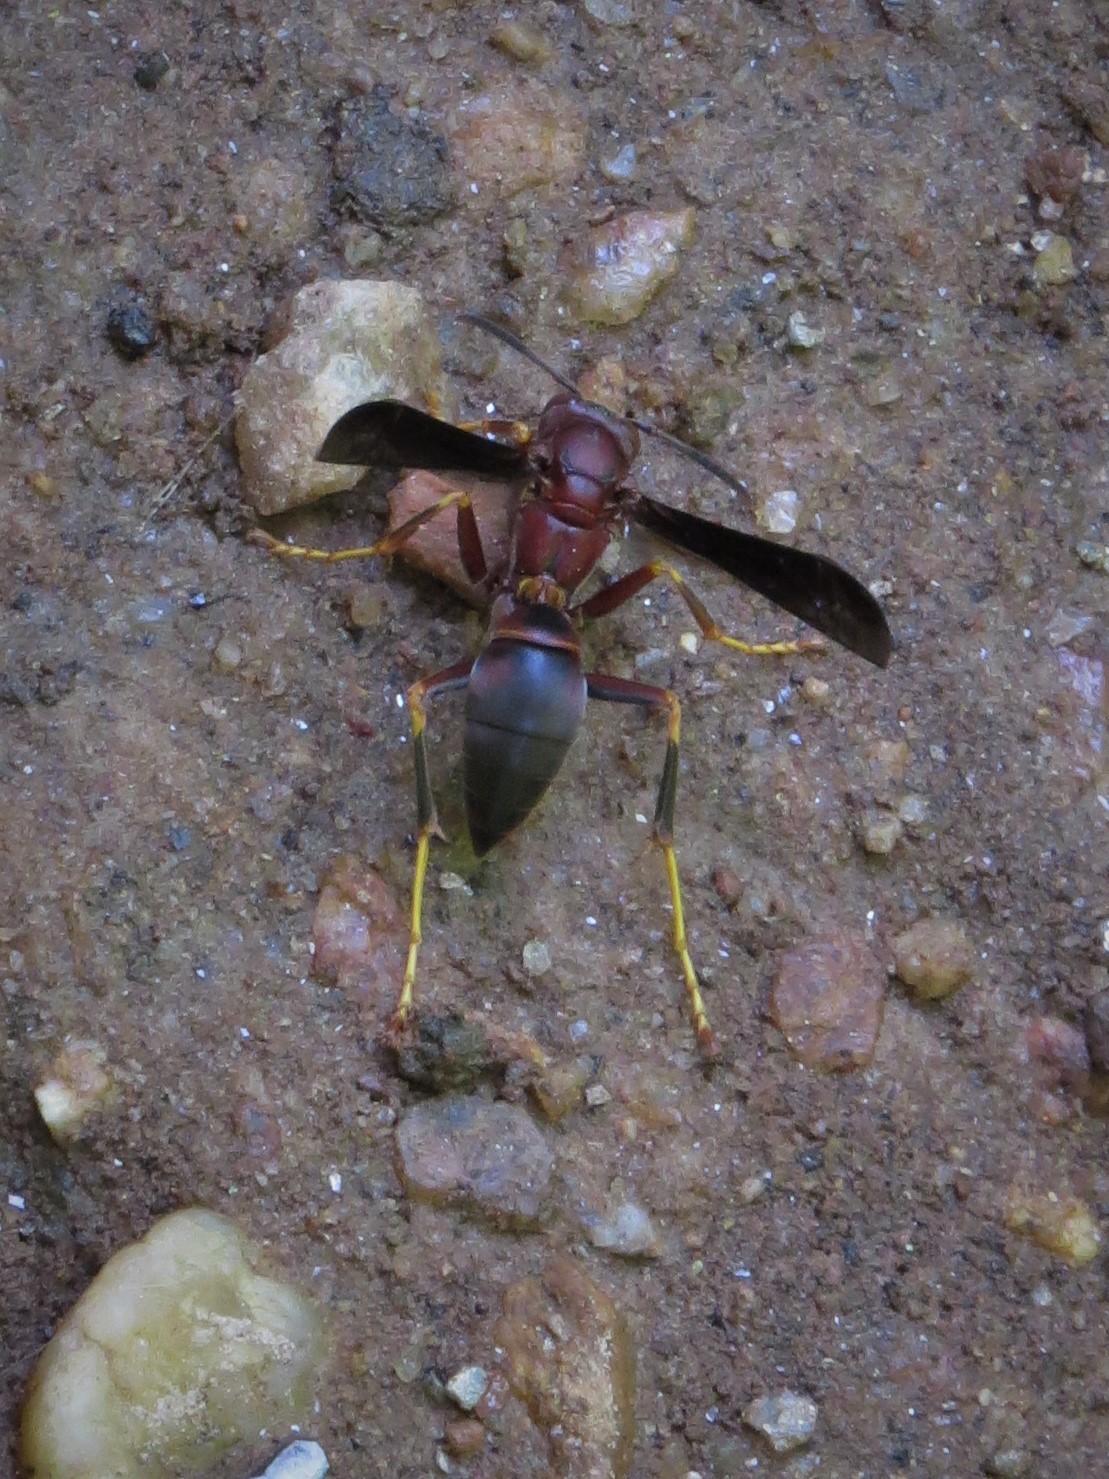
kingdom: Animalia
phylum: Arthropoda
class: Insecta
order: Hymenoptera
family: Eumenidae
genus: Polistes
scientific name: Polistes metricus
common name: Metric paper wasp
